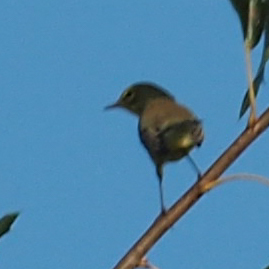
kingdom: Animalia
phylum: Chordata
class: Aves
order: Passeriformes
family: Parulidae
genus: Setophaga
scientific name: Setophaga palmarum
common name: Palm warbler
